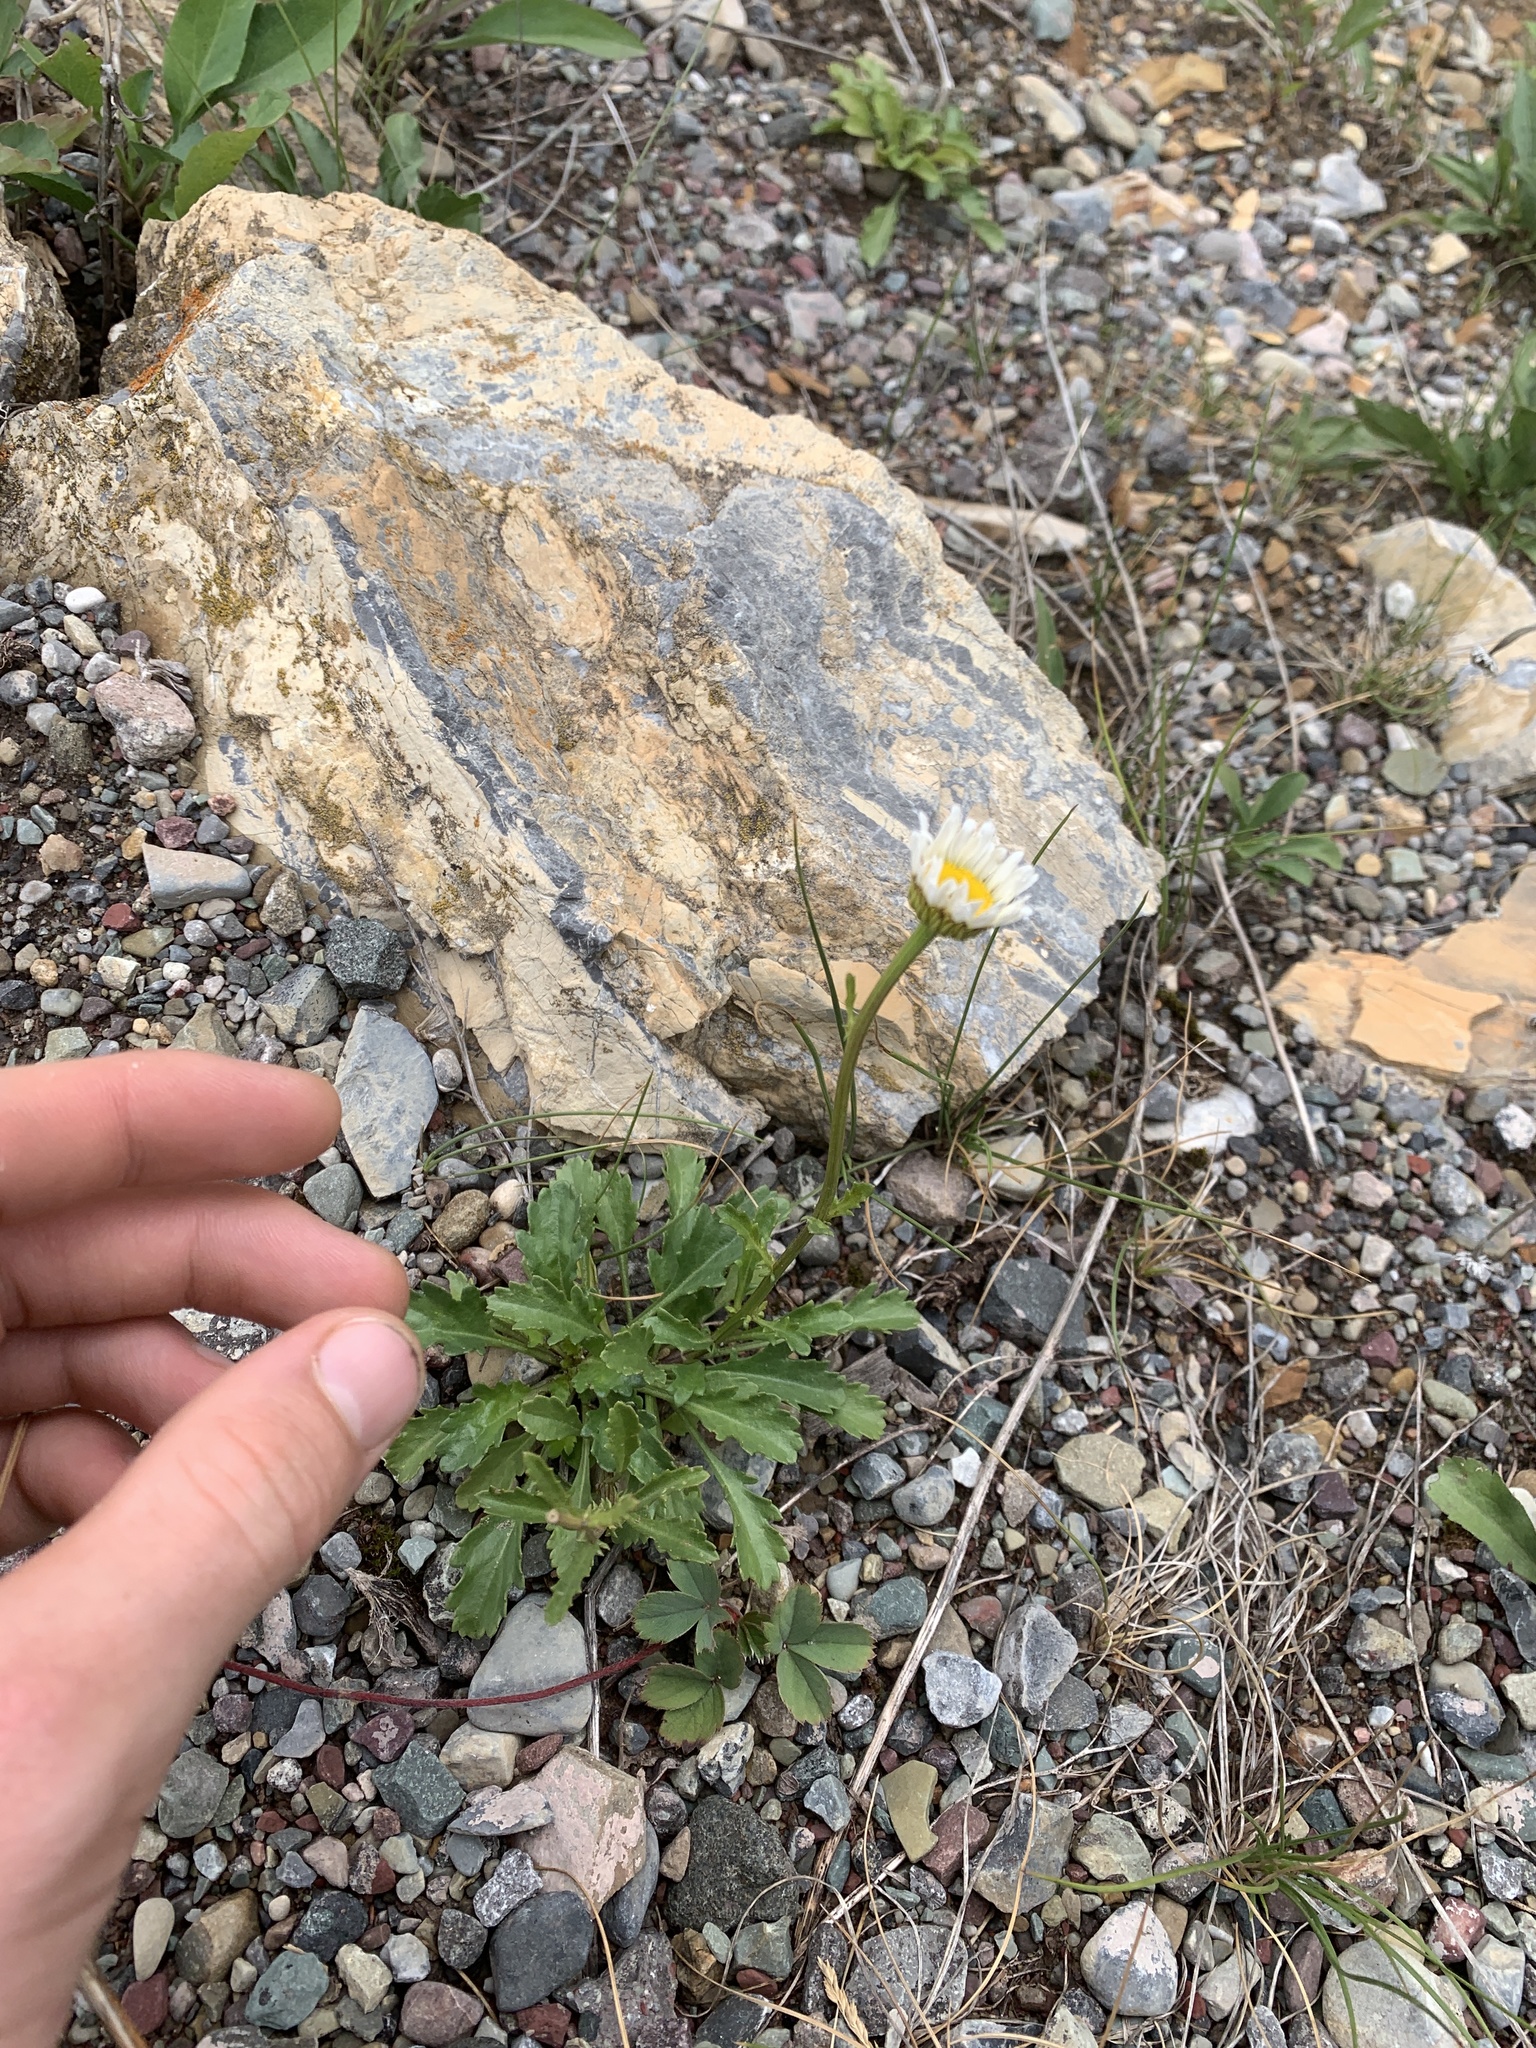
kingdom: Plantae
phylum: Tracheophyta
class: Magnoliopsida
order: Asterales
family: Asteraceae
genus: Leucanthemum
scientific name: Leucanthemum vulgare
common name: Oxeye daisy
